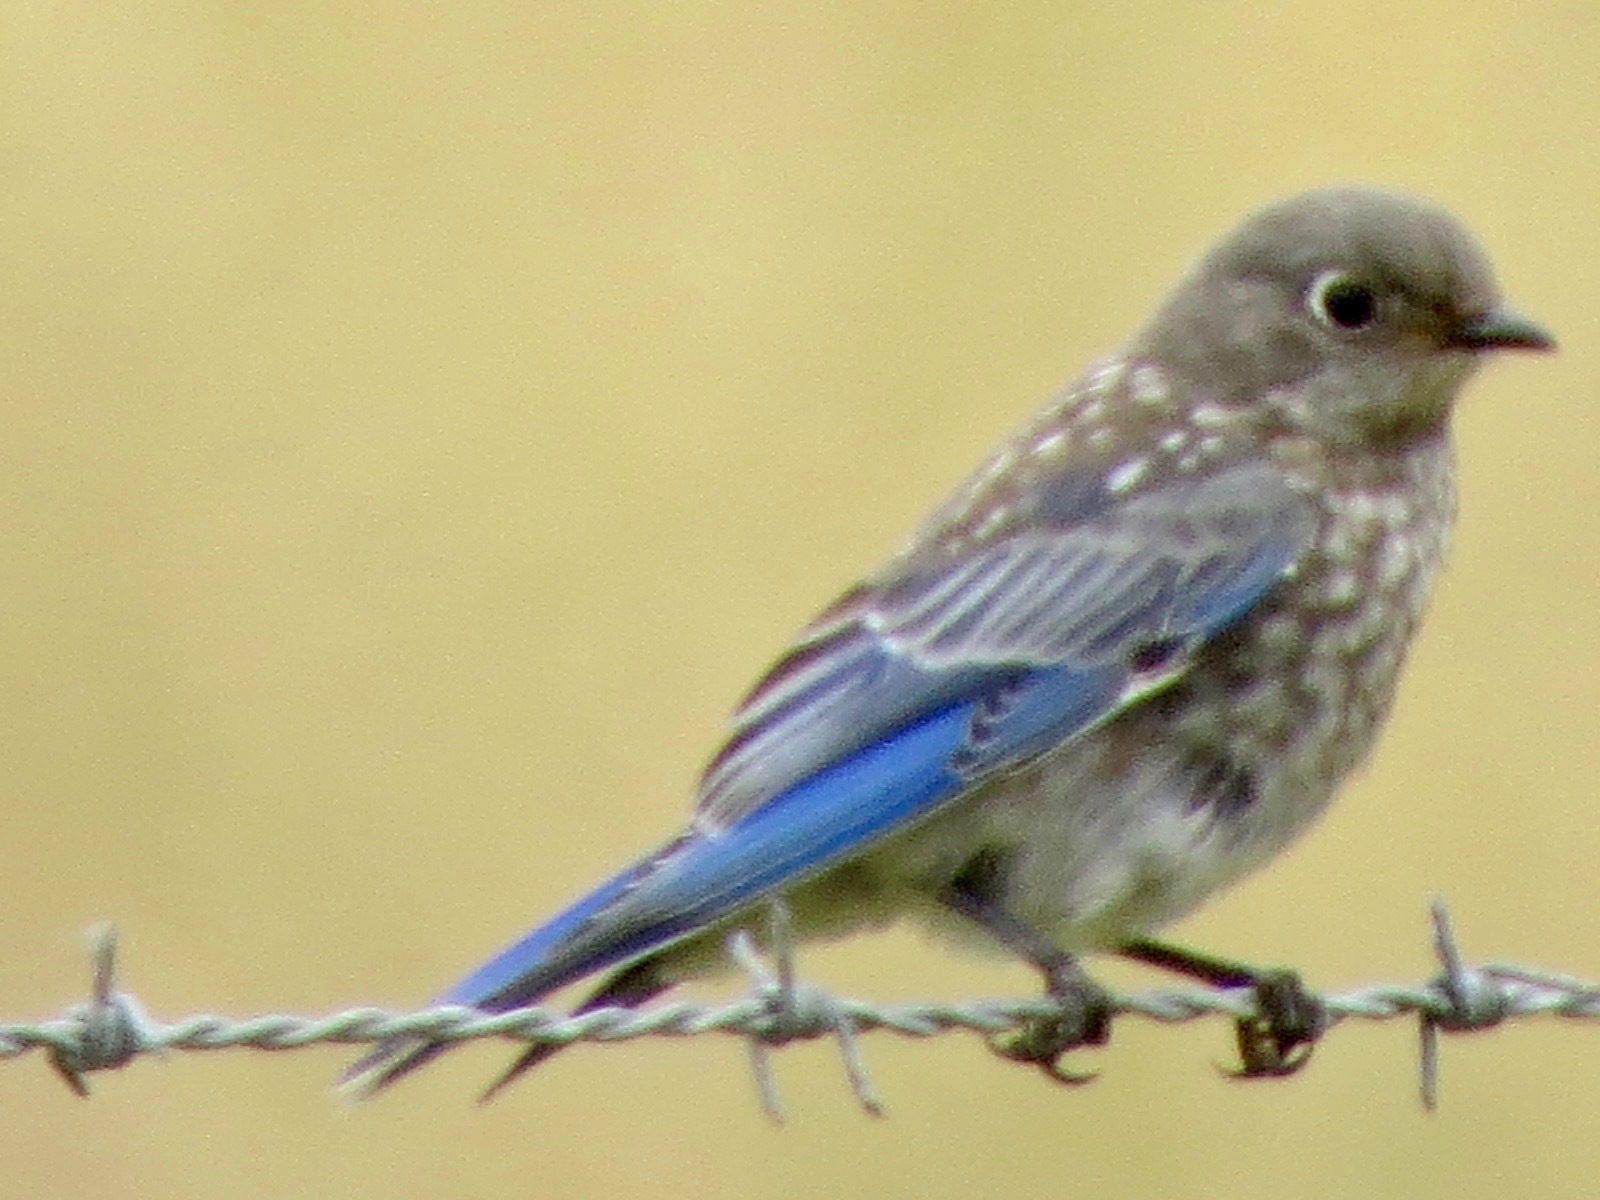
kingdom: Animalia
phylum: Chordata
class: Aves
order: Passeriformes
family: Turdidae
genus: Sialia
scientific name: Sialia mexicana
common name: Western bluebird
